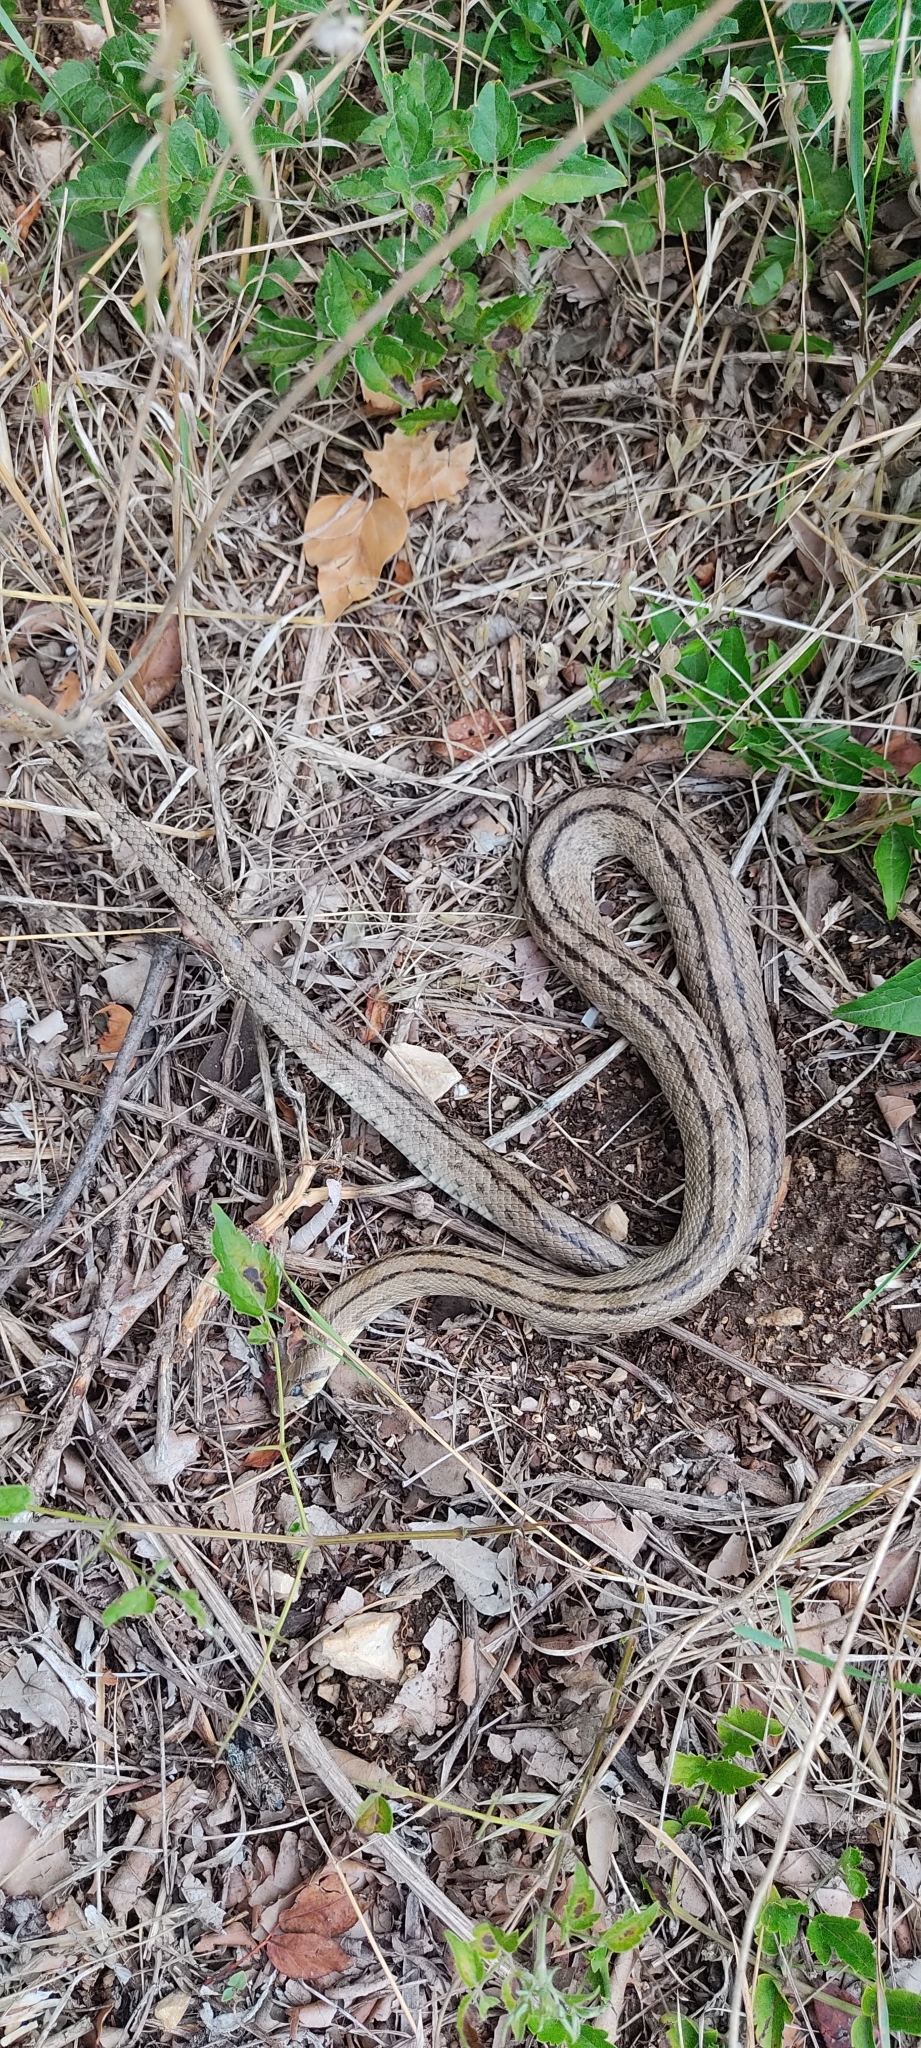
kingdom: Animalia
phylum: Chordata
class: Squamata
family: Colubridae
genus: Zamenis
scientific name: Zamenis scalaris
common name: Ladder snakes
